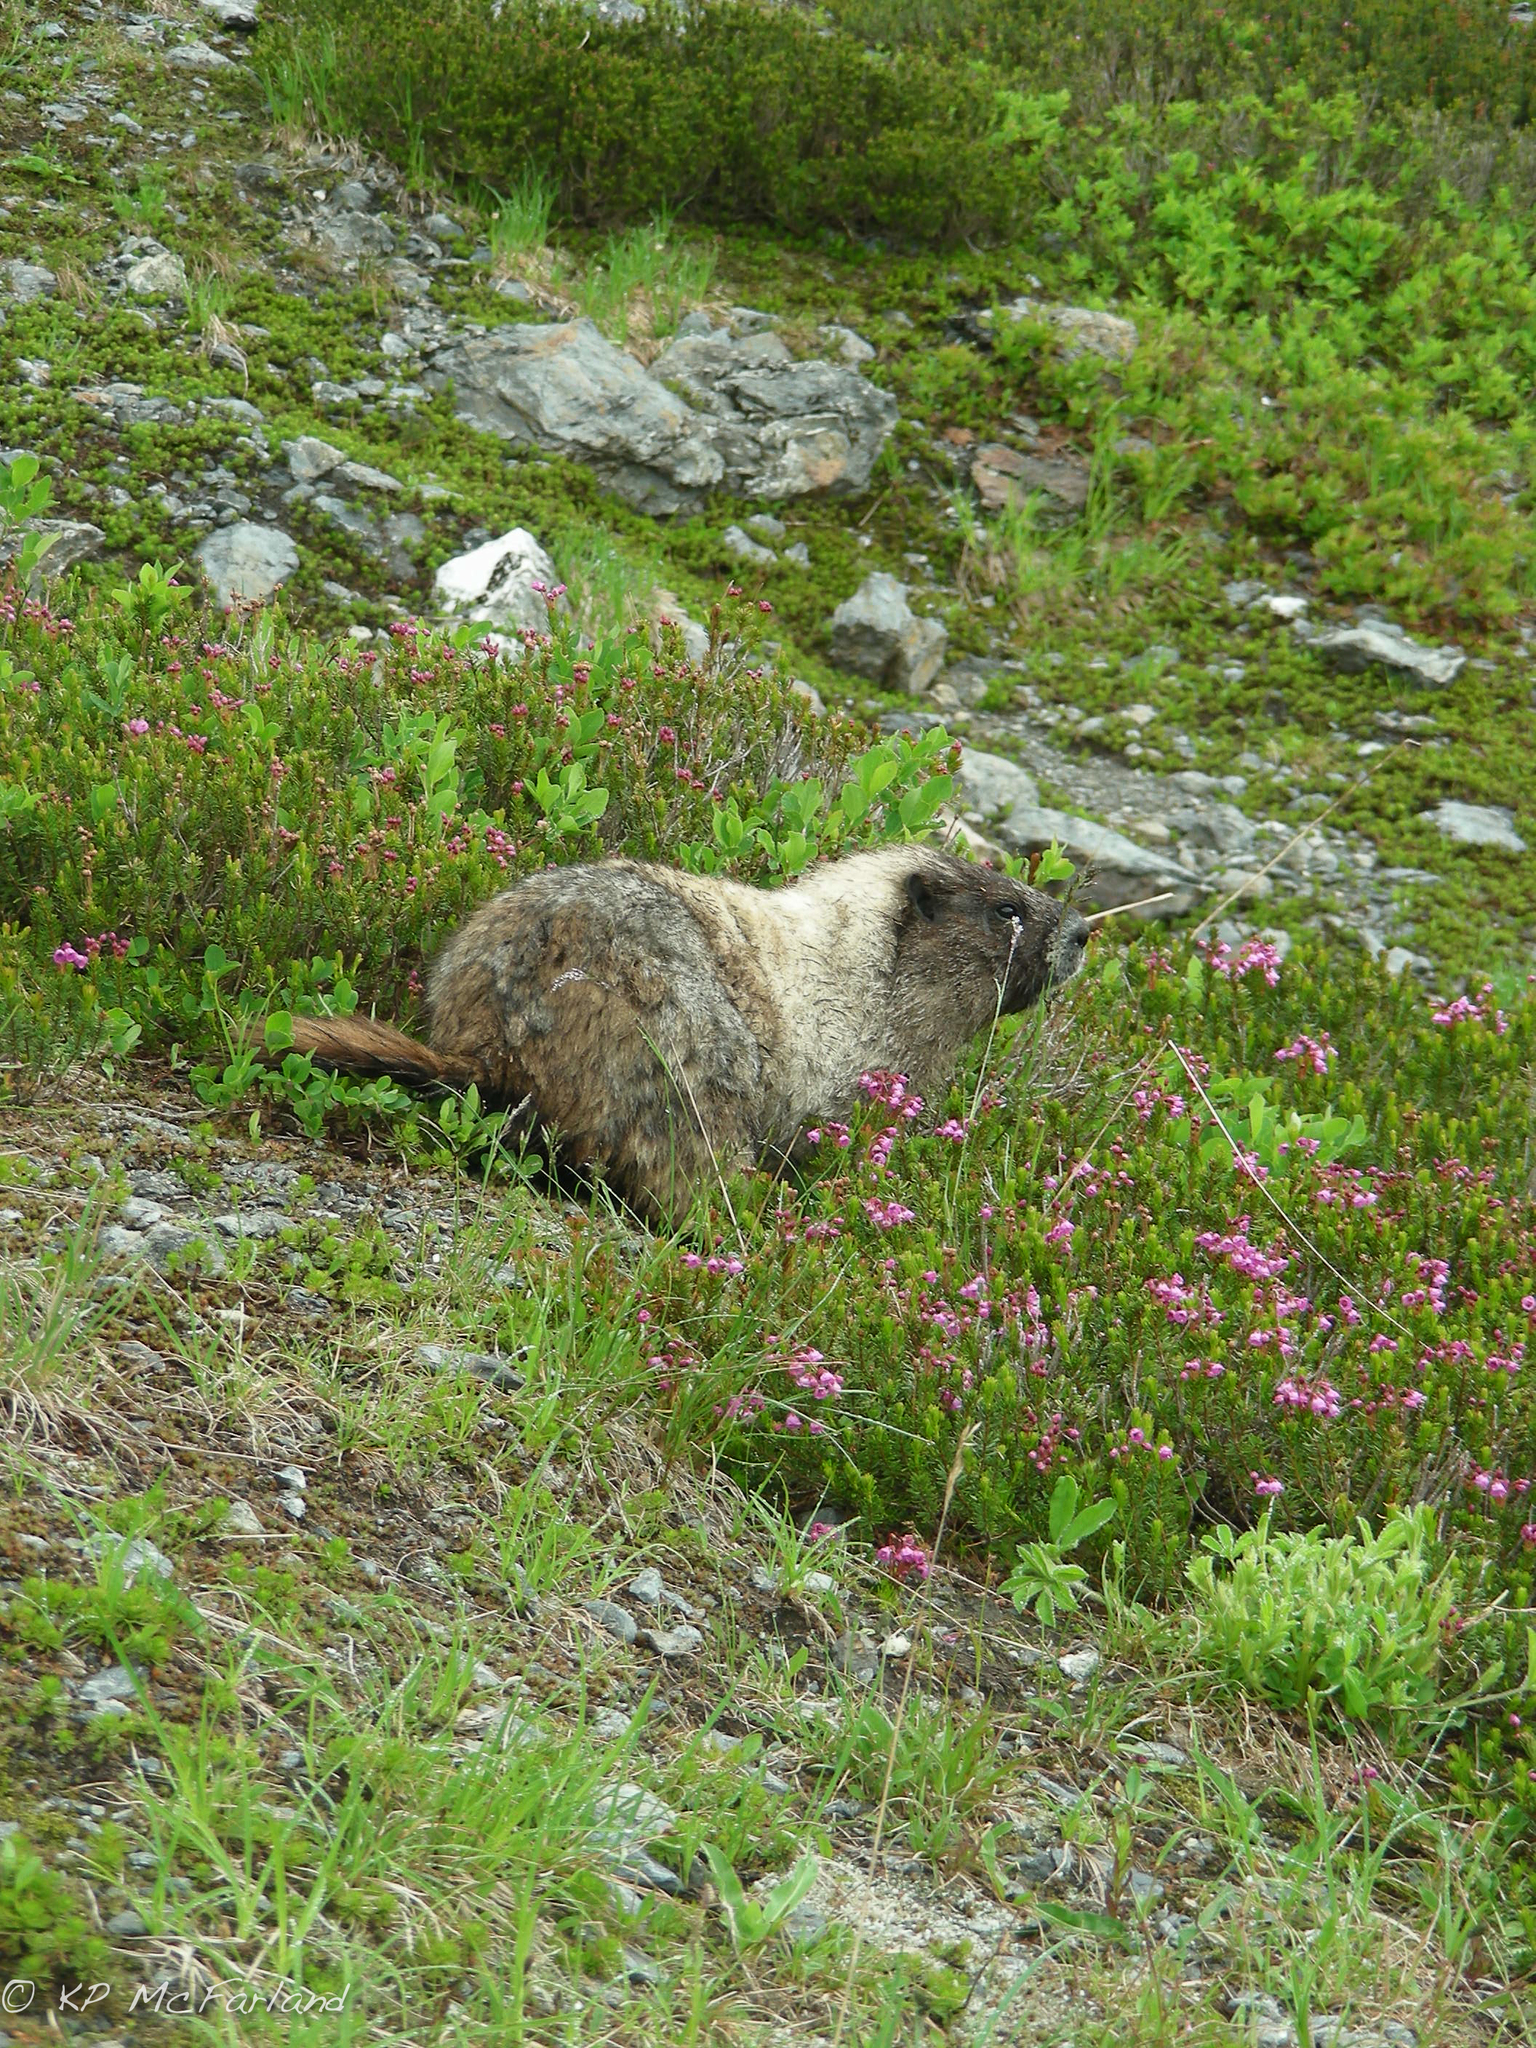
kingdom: Animalia
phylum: Chordata
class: Mammalia
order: Rodentia
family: Sciuridae
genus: Marmota
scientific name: Marmota caligata
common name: Hoary marmot
